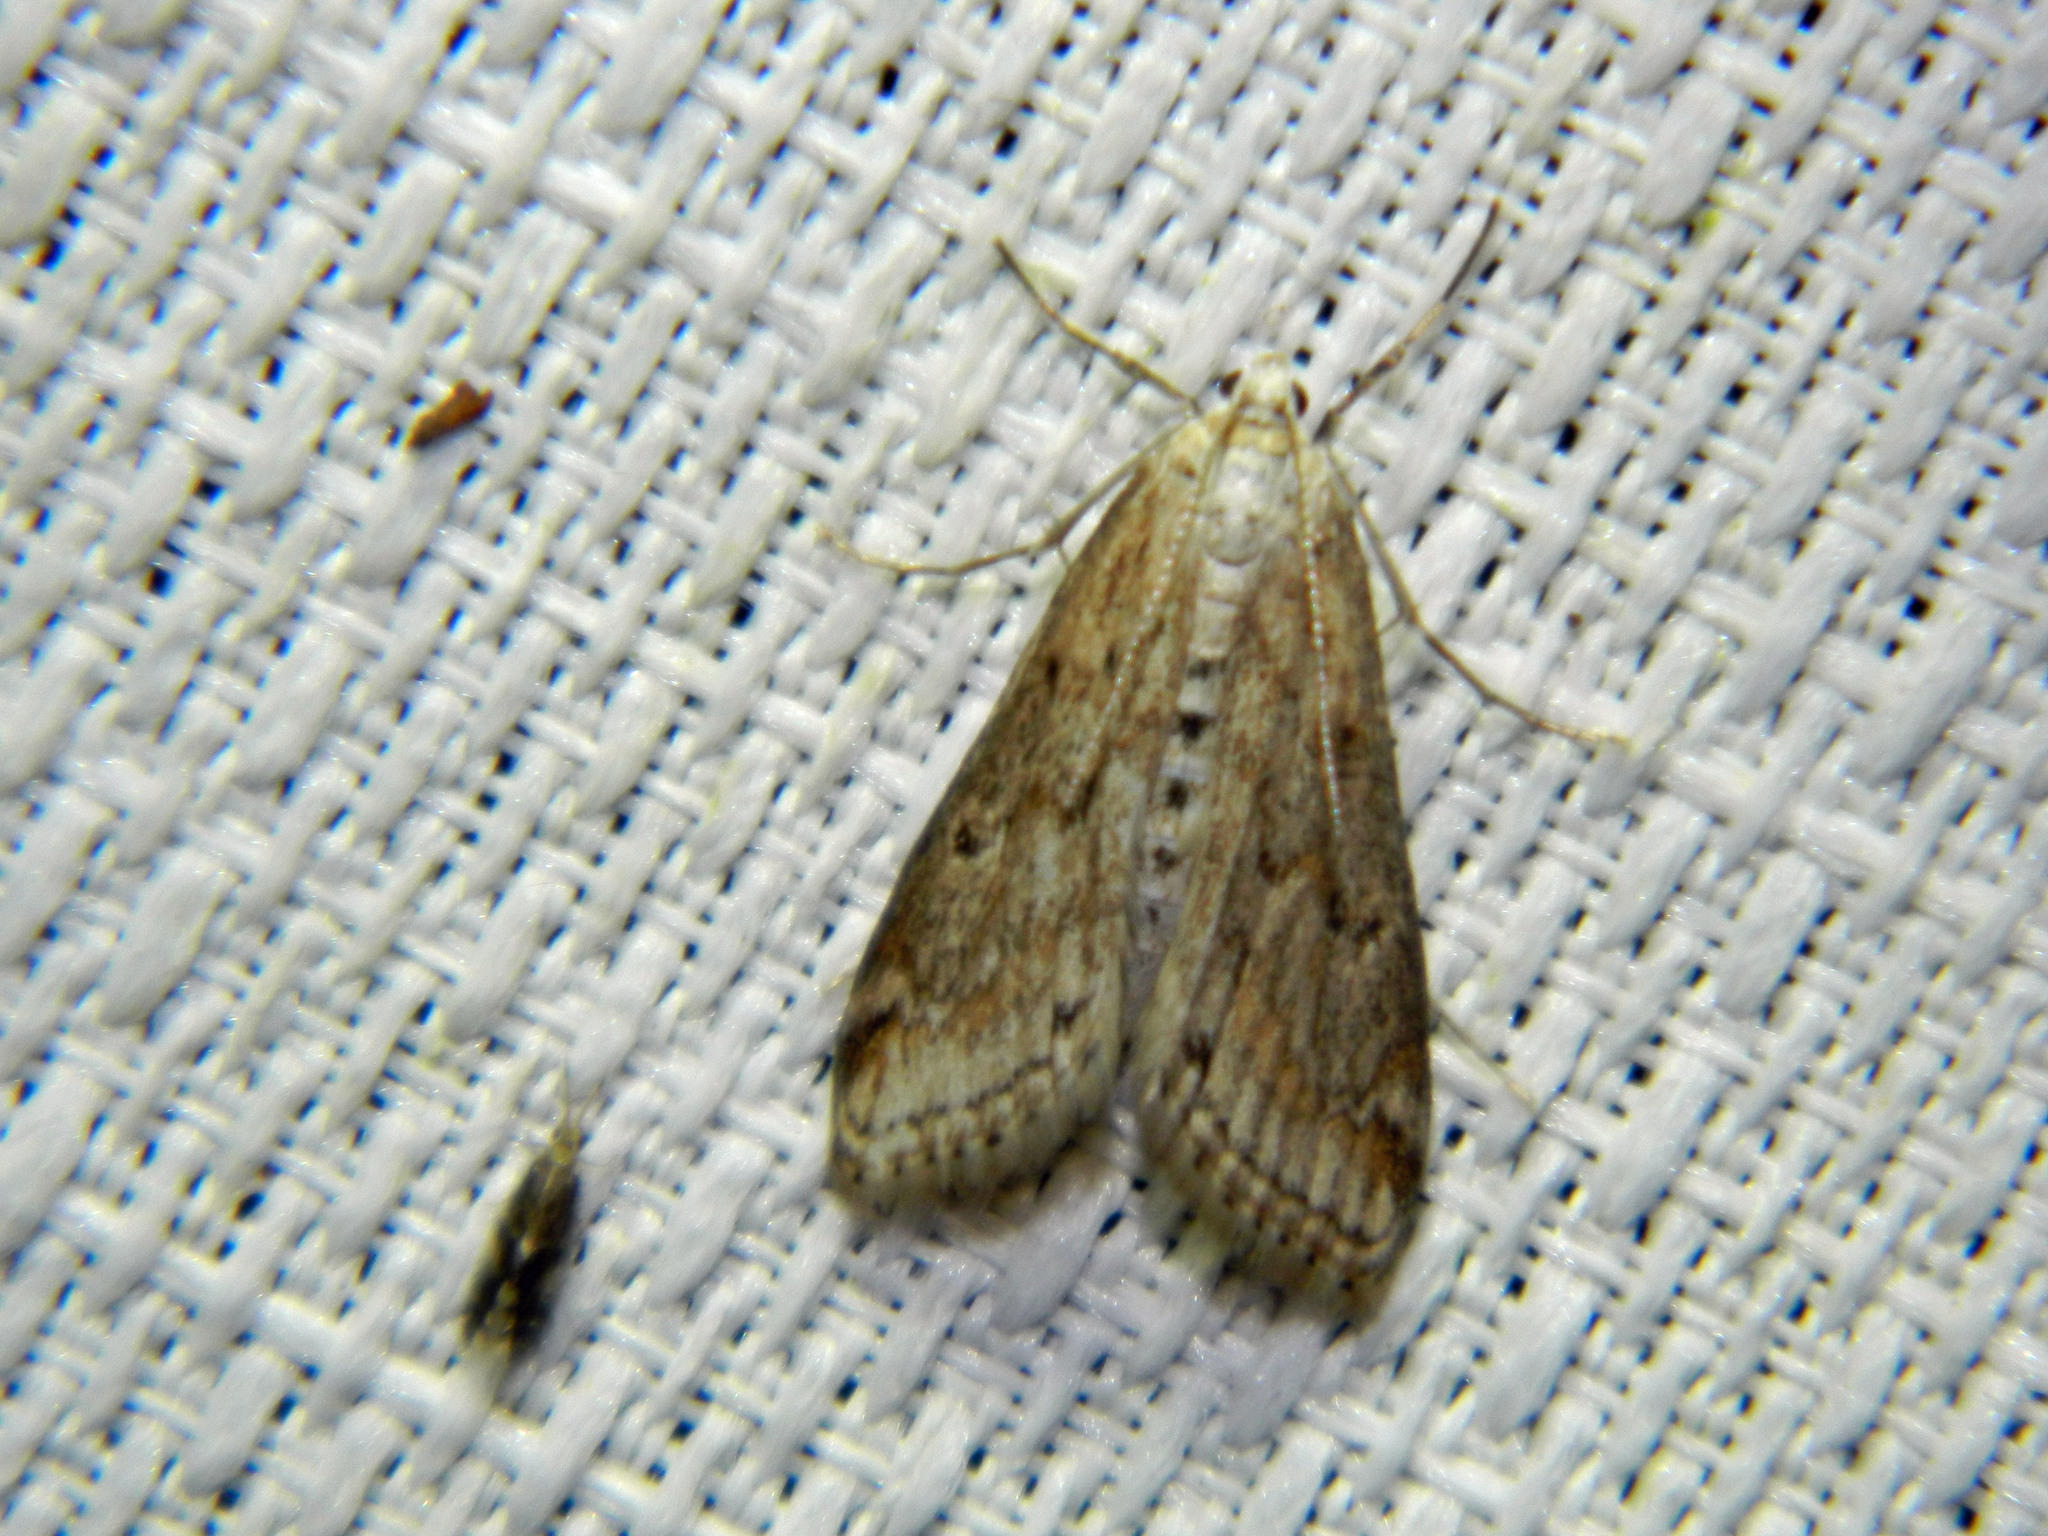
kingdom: Animalia
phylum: Arthropoda
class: Insecta
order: Lepidoptera
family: Crambidae
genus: Parapoynx
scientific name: Parapoynx allionealis
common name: Bladderwort casemaker
